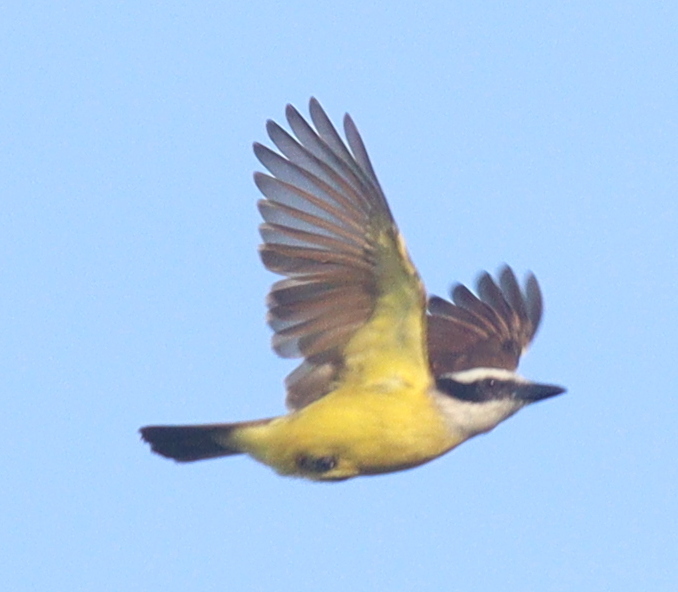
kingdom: Animalia
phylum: Chordata
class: Aves
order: Passeriformes
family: Tyrannidae
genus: Pitangus
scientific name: Pitangus sulphuratus
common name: Great kiskadee
